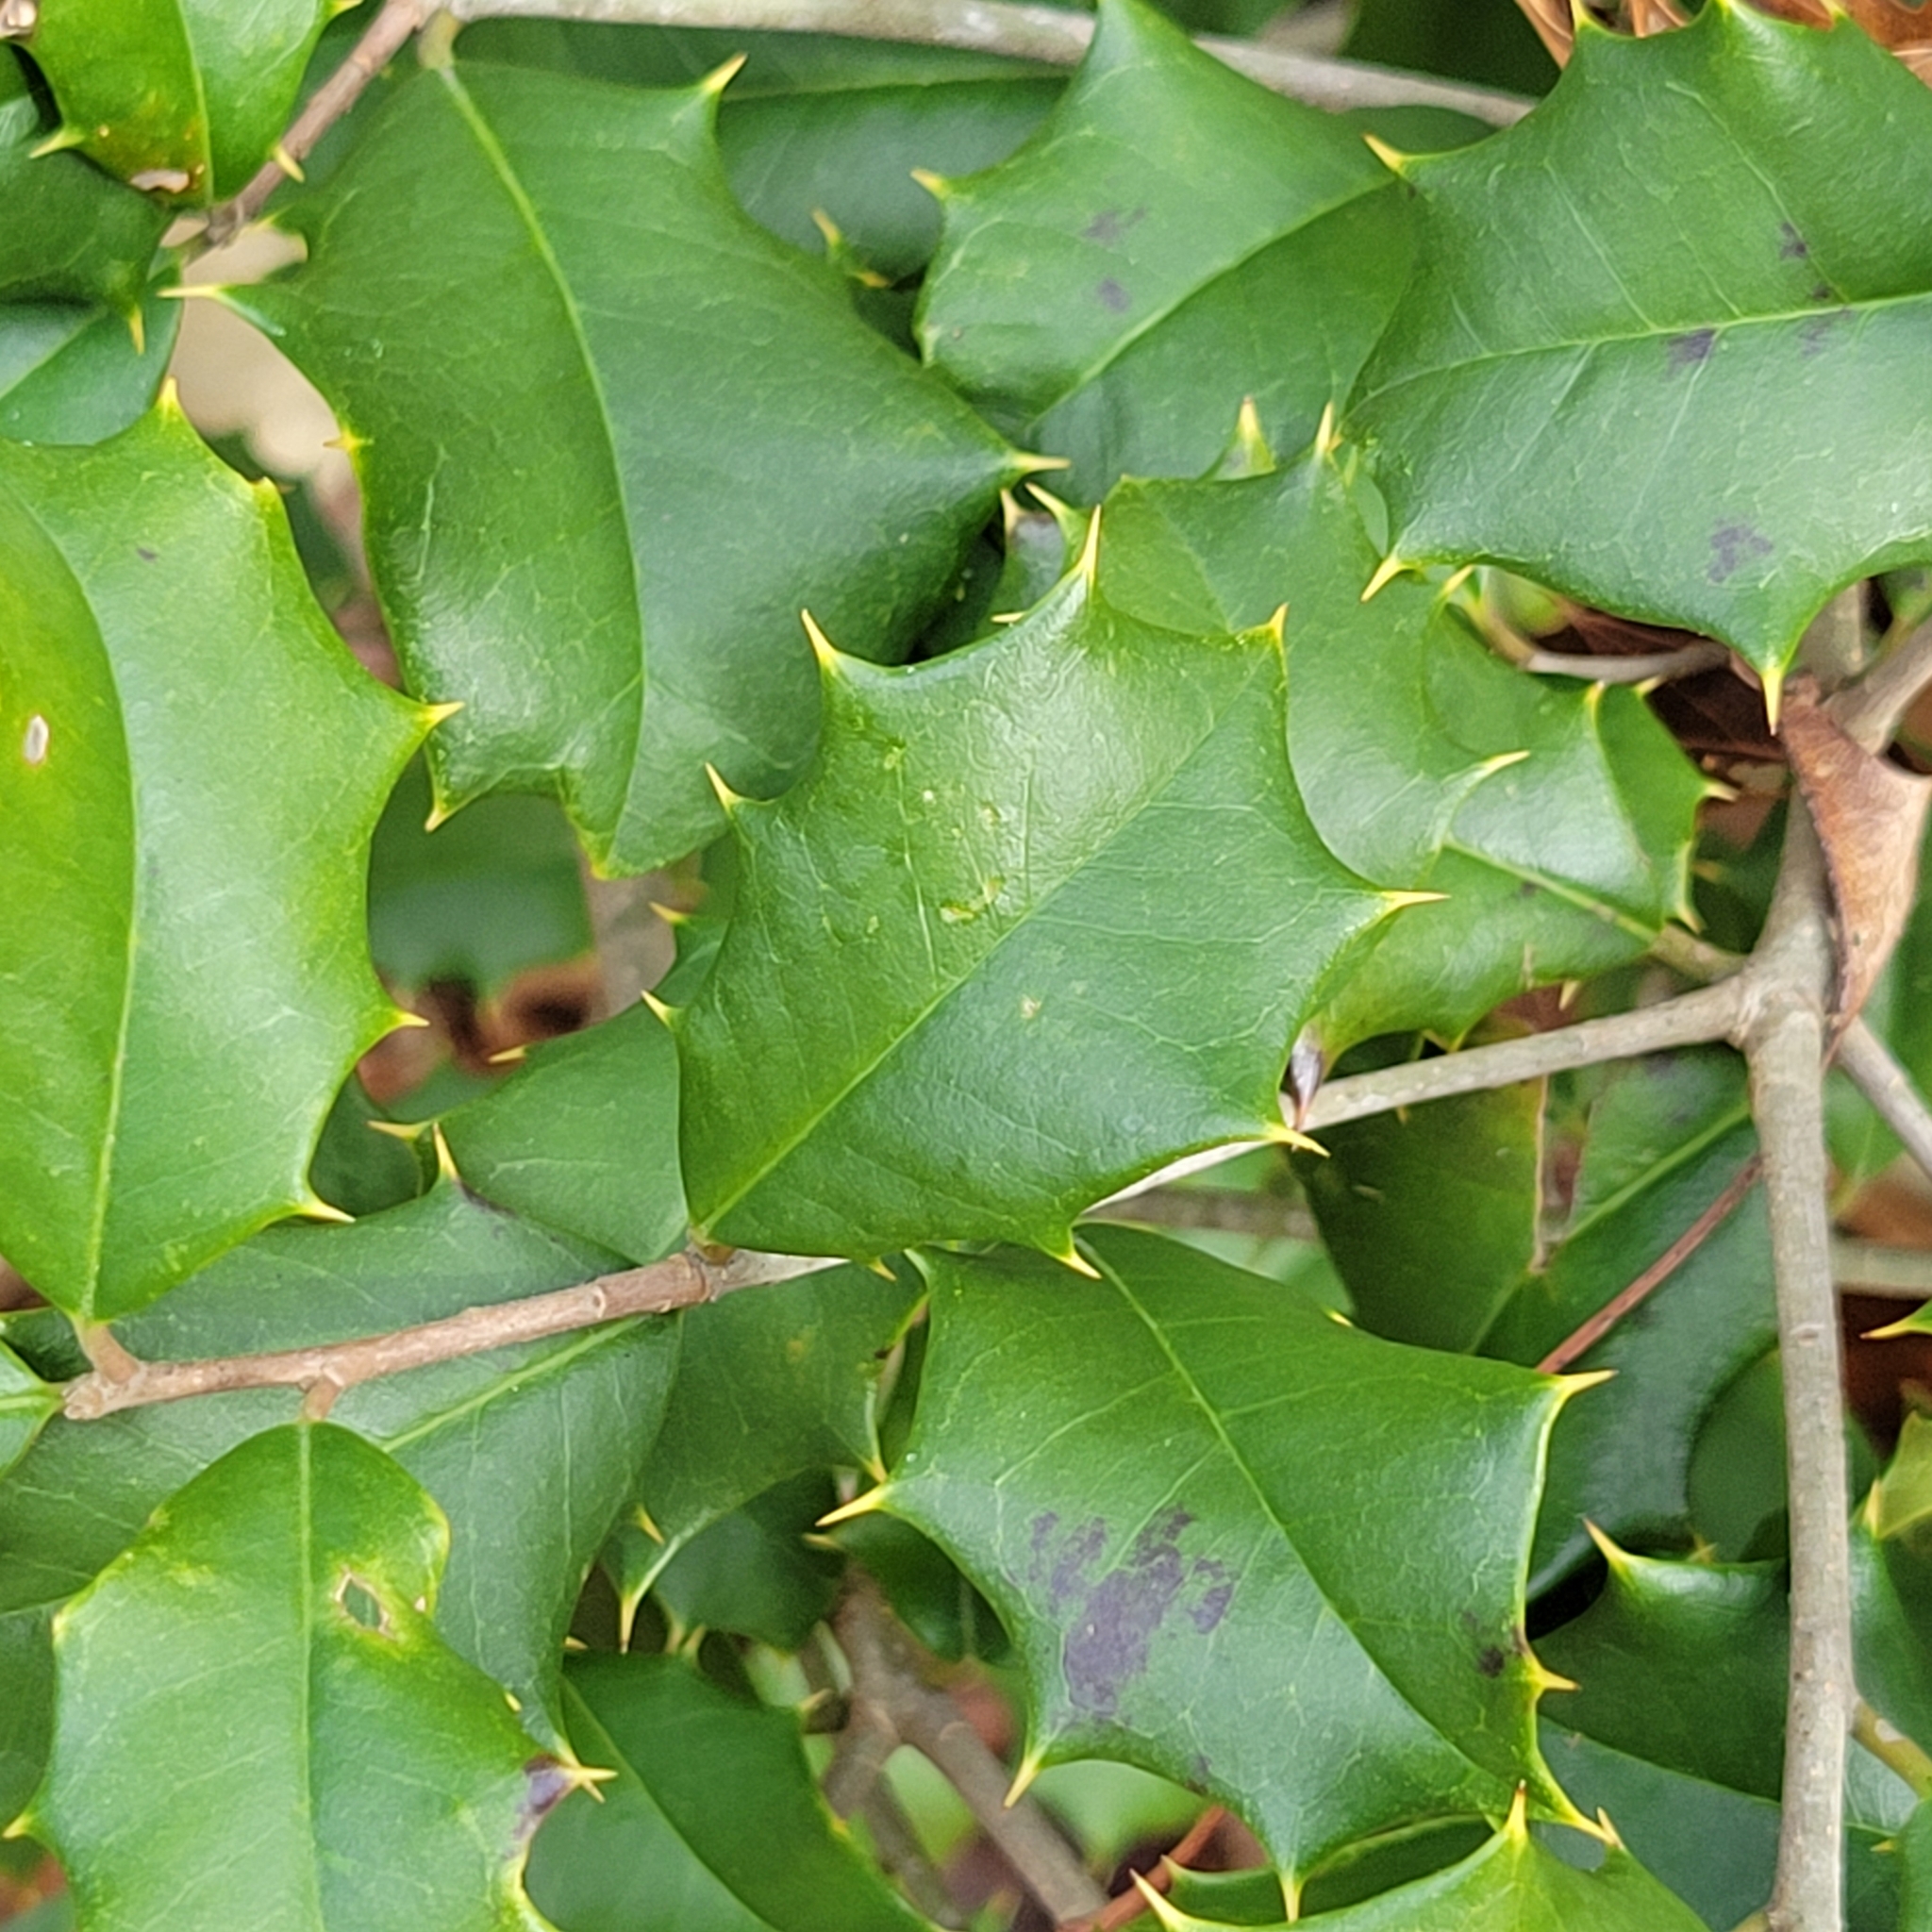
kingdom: Plantae
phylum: Tracheophyta
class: Magnoliopsida
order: Aquifoliales
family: Aquifoliaceae
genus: Ilex
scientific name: Ilex opaca
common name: American holly
